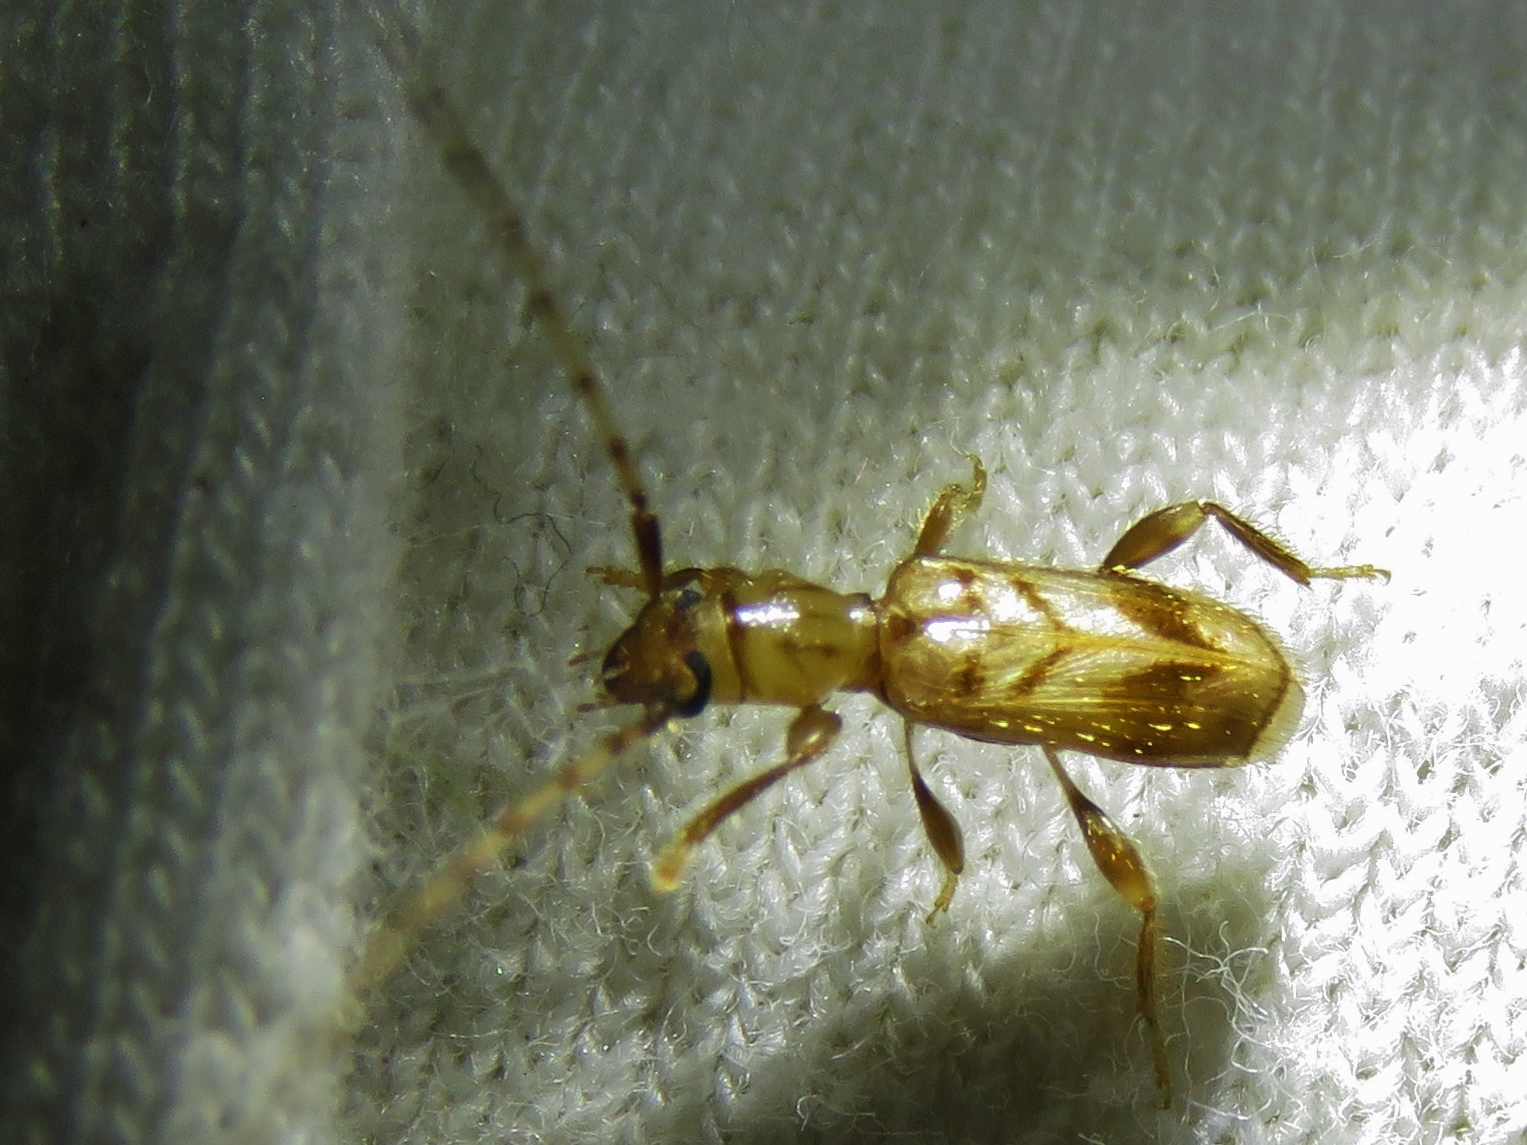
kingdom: Animalia
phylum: Arthropoda
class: Insecta
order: Coleoptera
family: Cerambycidae
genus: Obrium
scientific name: Obrium maculatum
